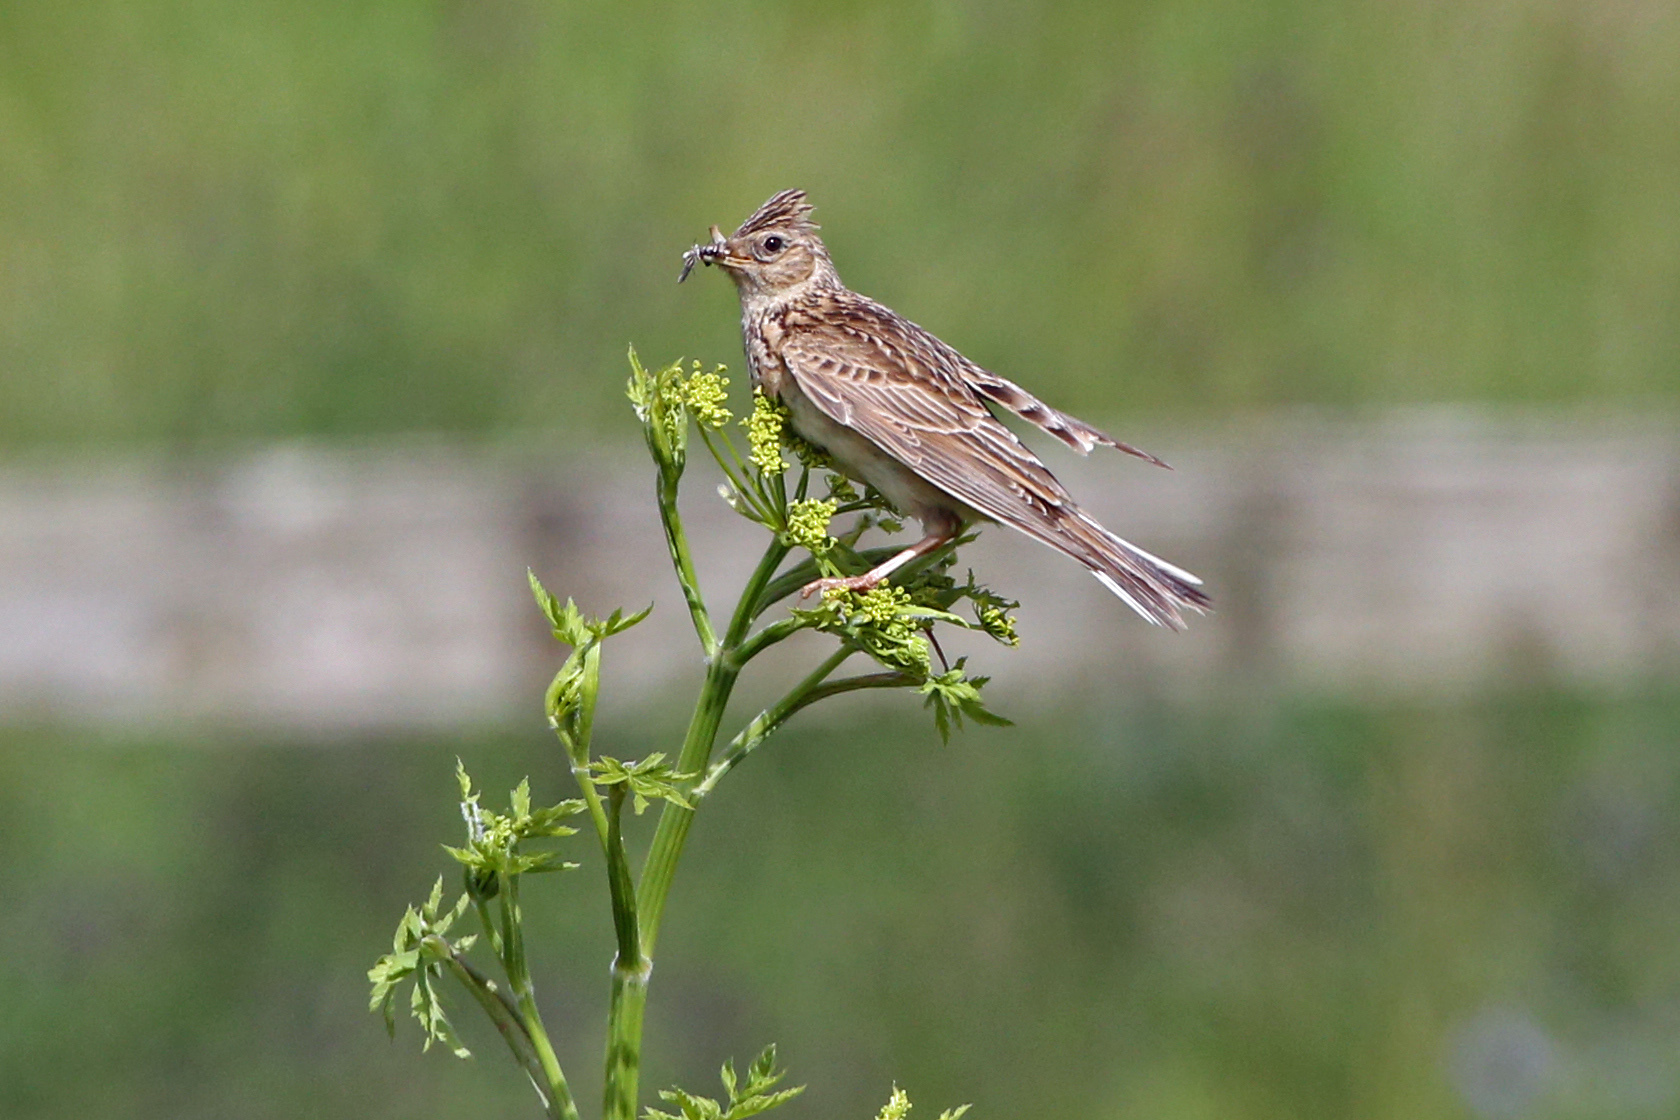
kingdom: Animalia
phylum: Chordata
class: Aves
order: Passeriformes
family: Alaudidae
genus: Alauda
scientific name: Alauda arvensis
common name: Eurasian skylark
